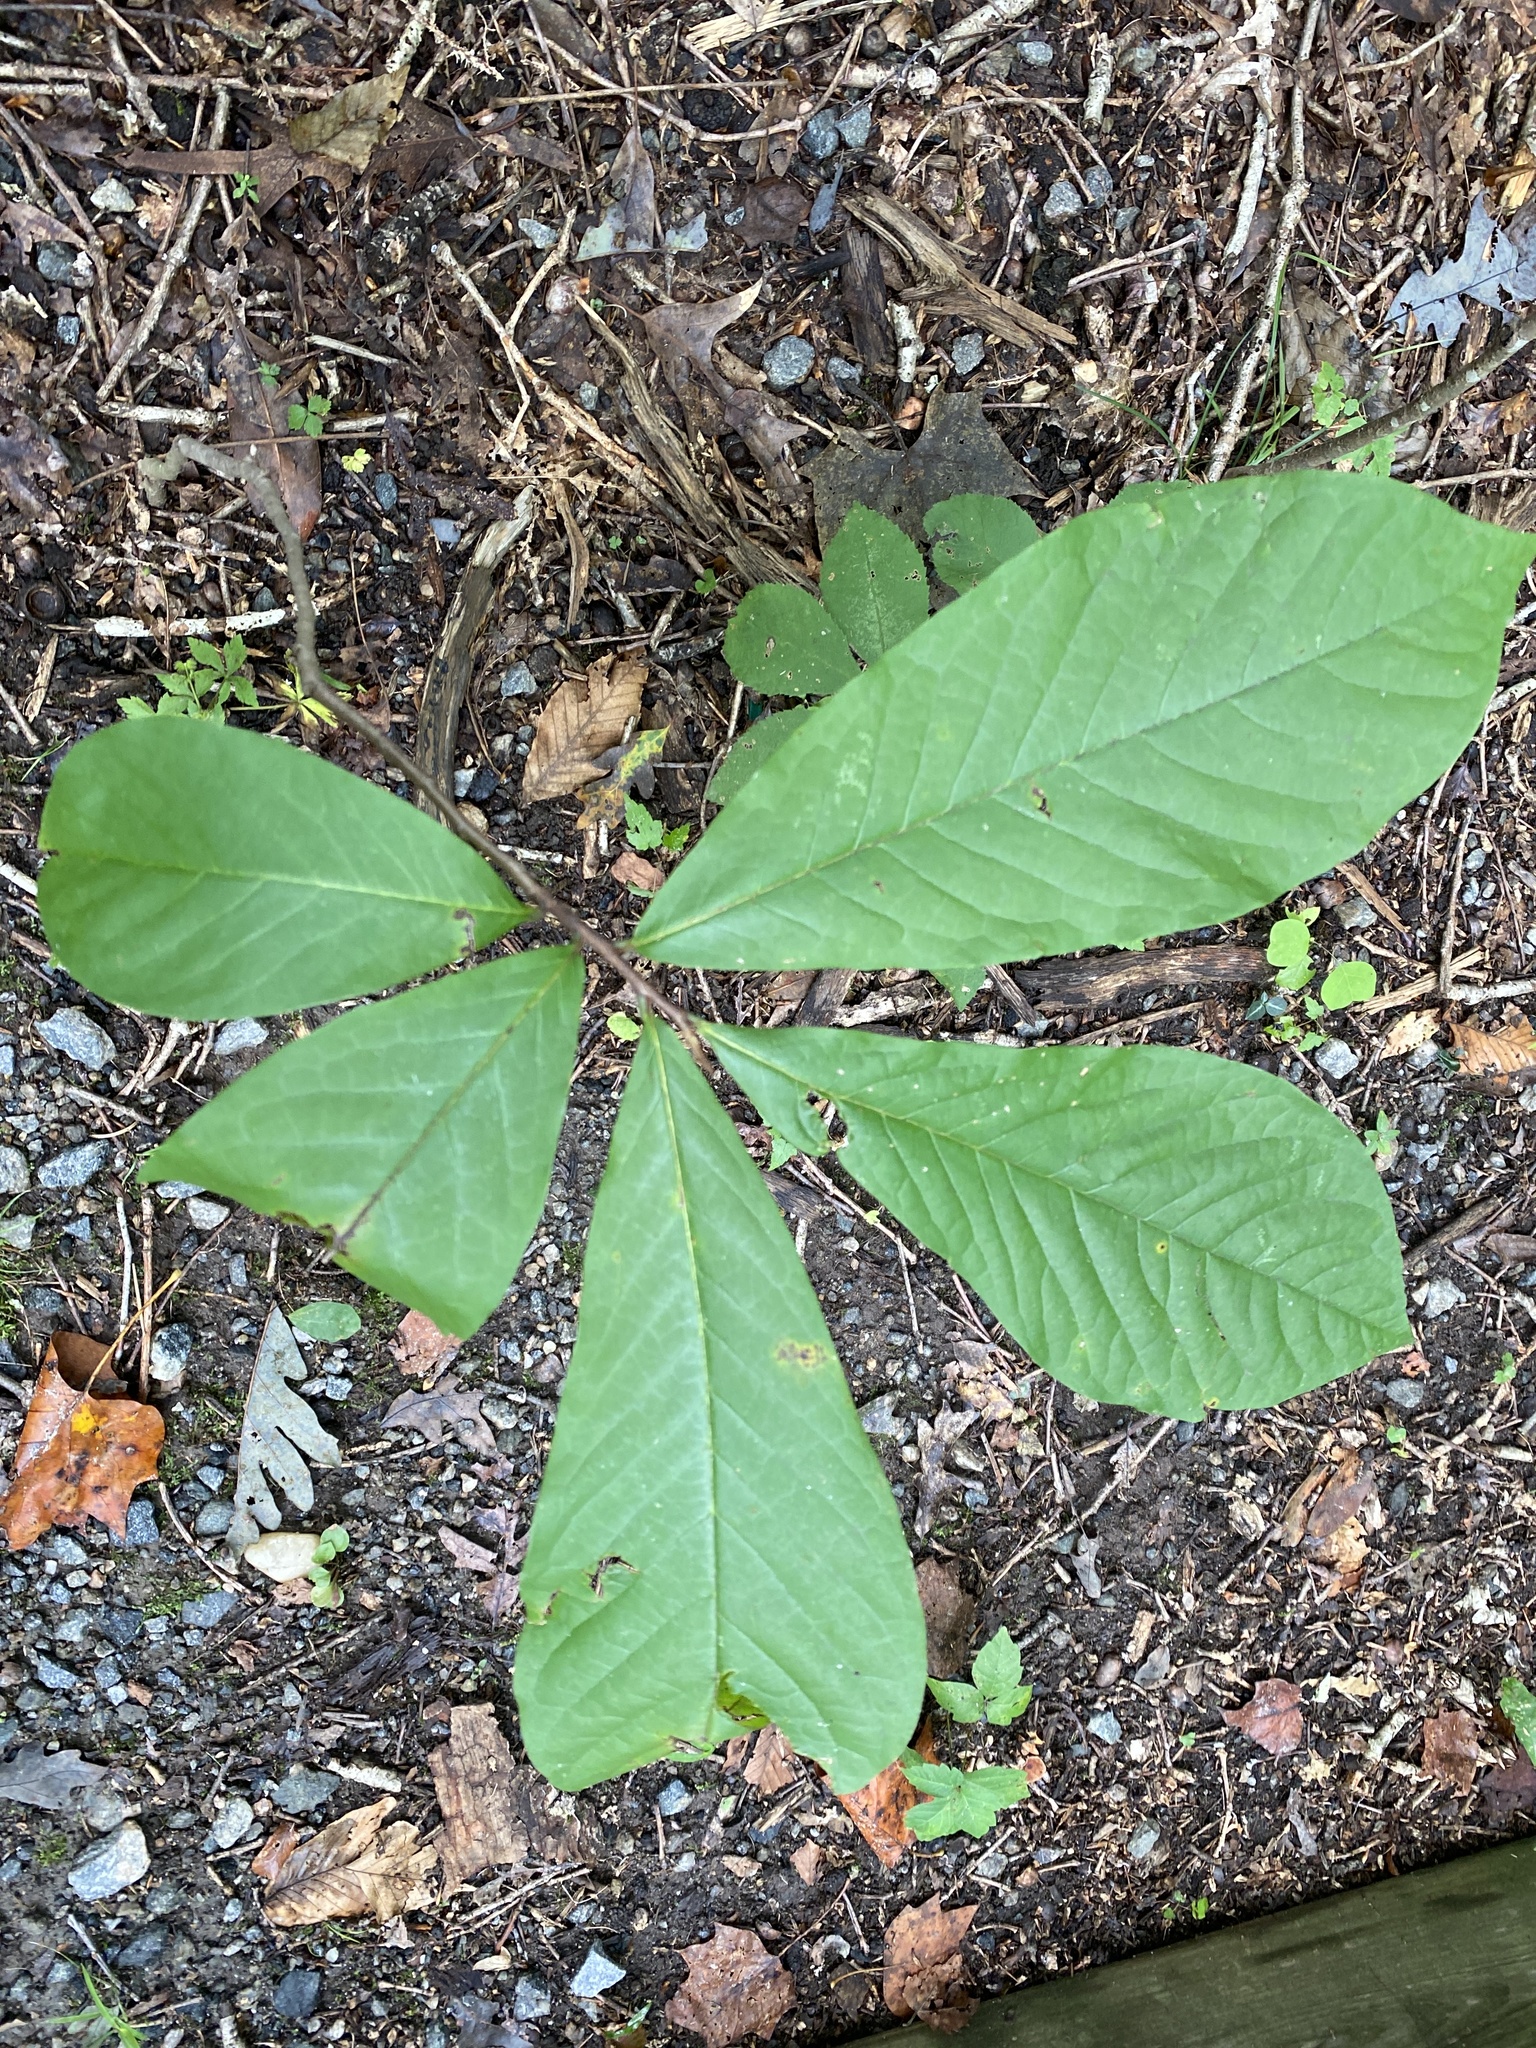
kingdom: Plantae
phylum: Tracheophyta
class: Magnoliopsida
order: Magnoliales
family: Annonaceae
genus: Asimina
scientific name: Asimina triloba
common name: Dog-banana
